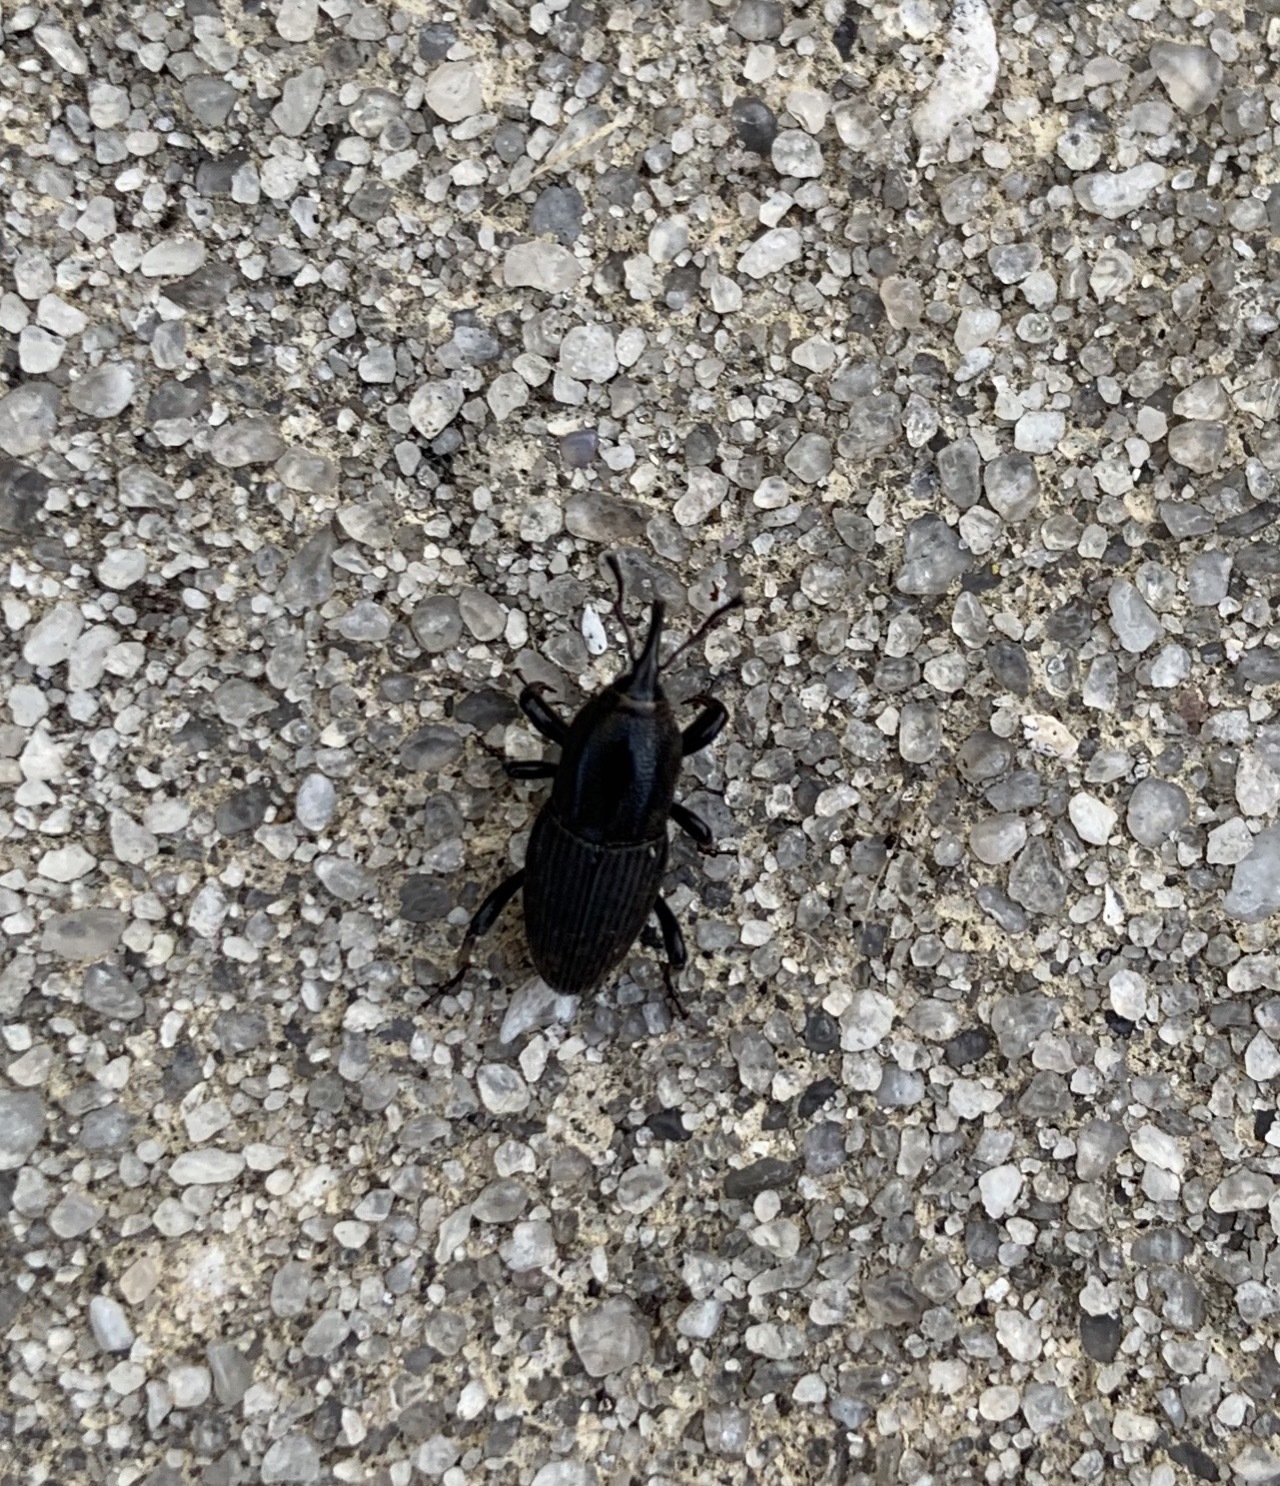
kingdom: Animalia
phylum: Arthropoda
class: Insecta
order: Coleoptera
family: Dryophthoridae
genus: Sphenophorus
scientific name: Sphenophorus necydaloides
